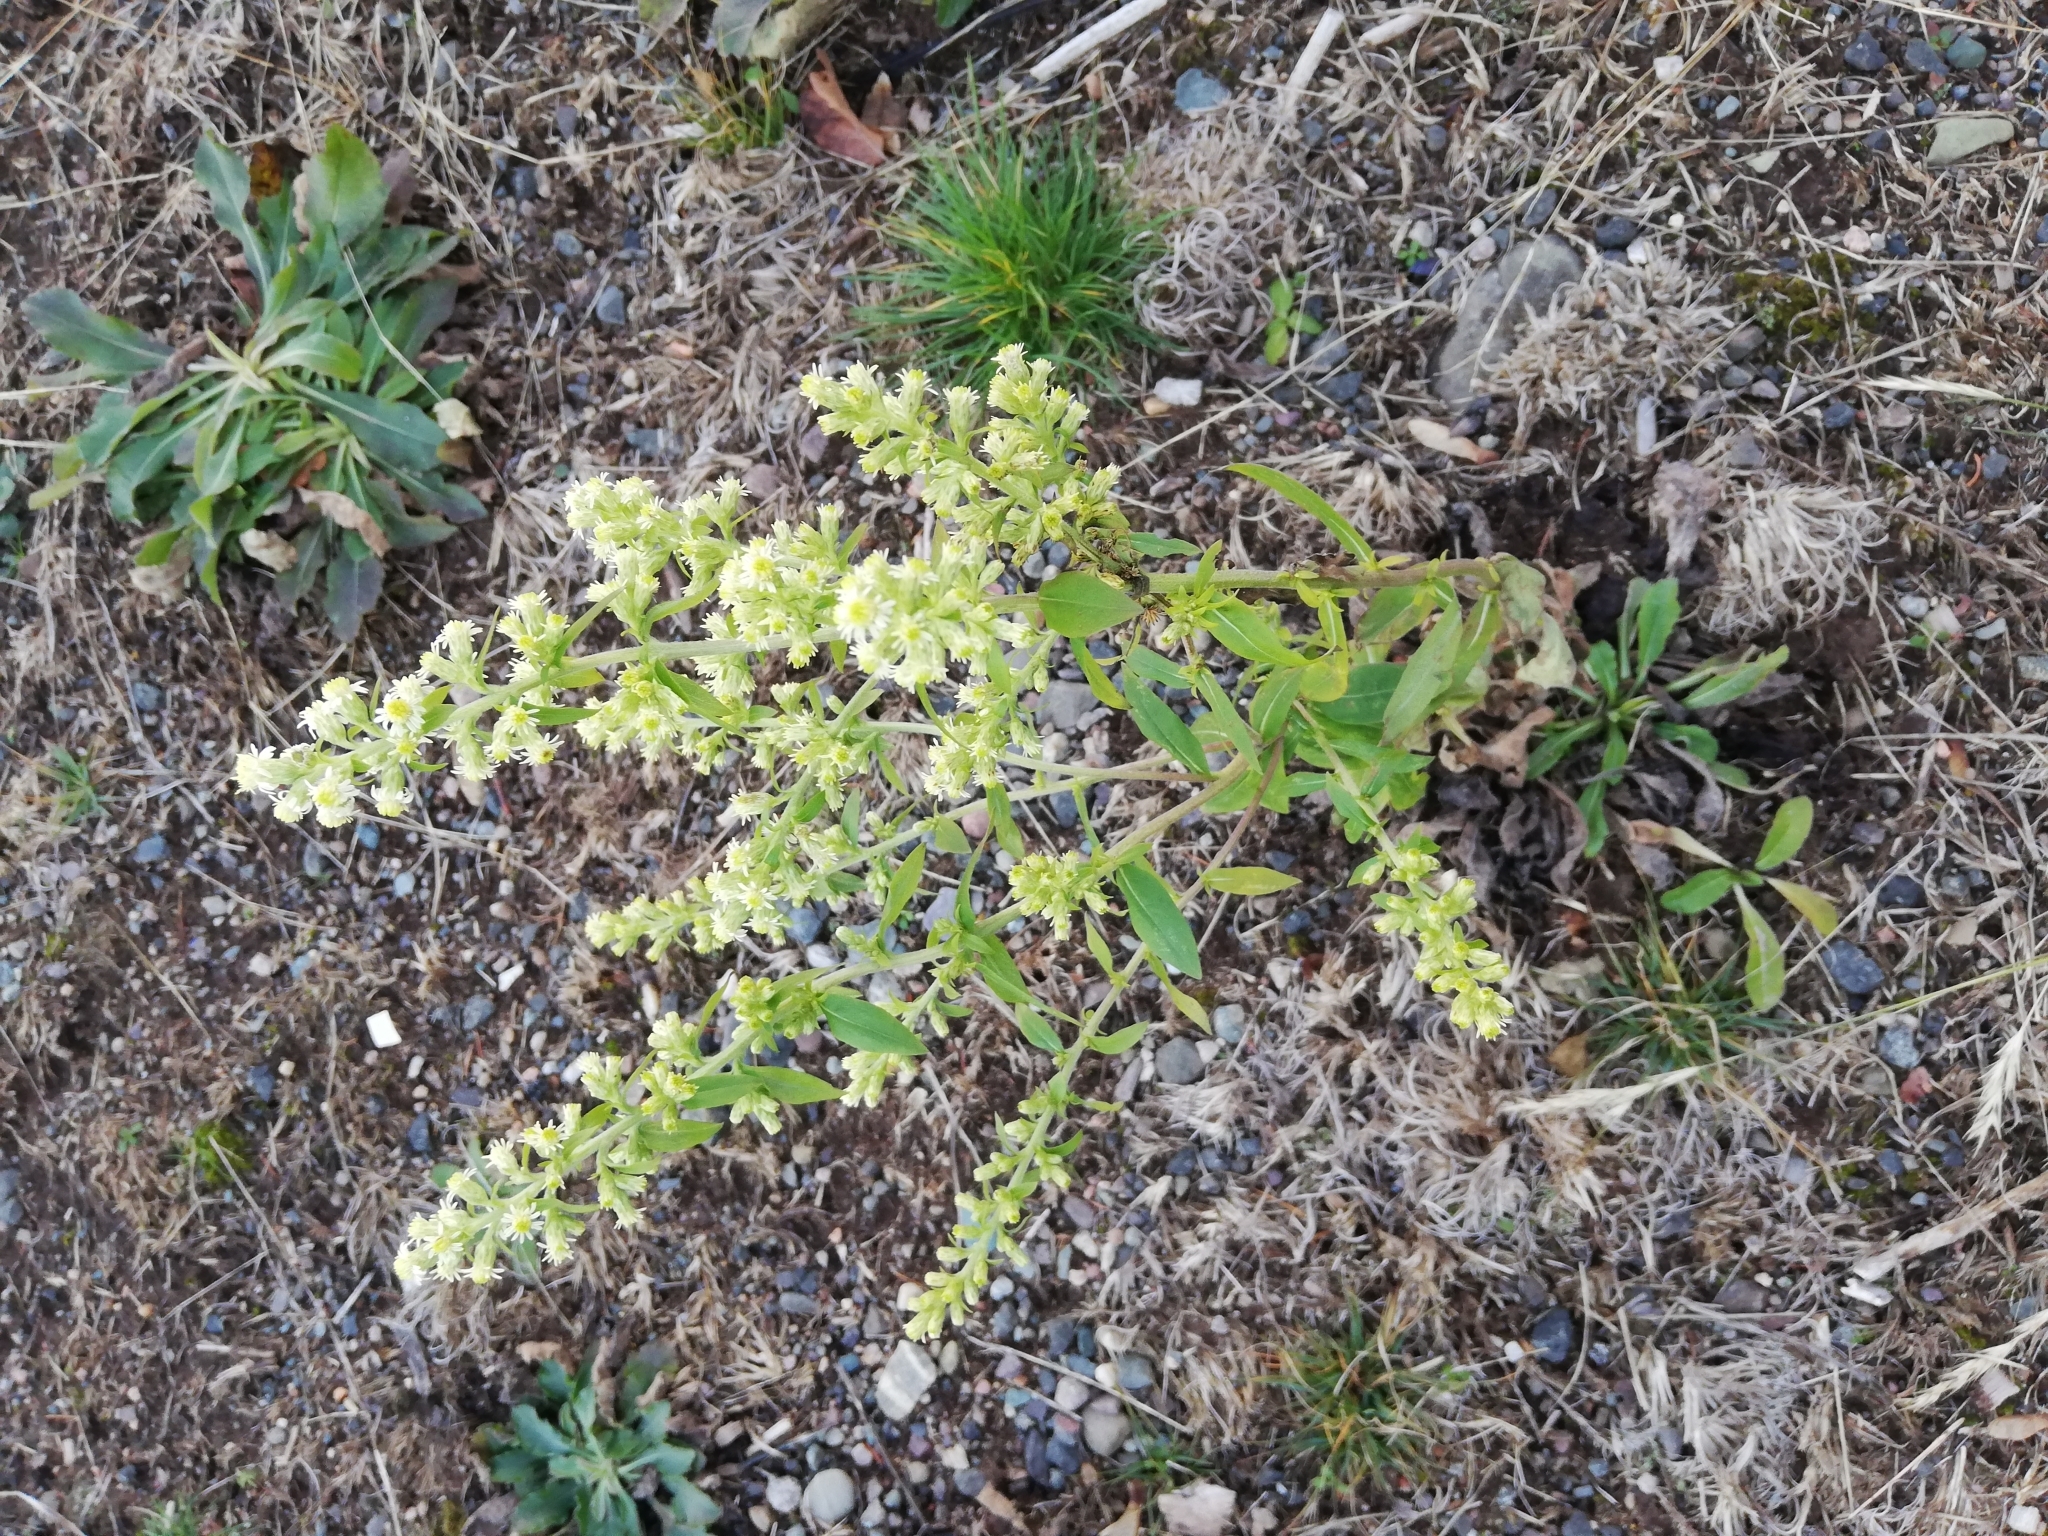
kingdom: Plantae
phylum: Tracheophyta
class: Magnoliopsida
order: Asterales
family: Asteraceae
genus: Solidago
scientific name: Solidago bicolor
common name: Silverrod
